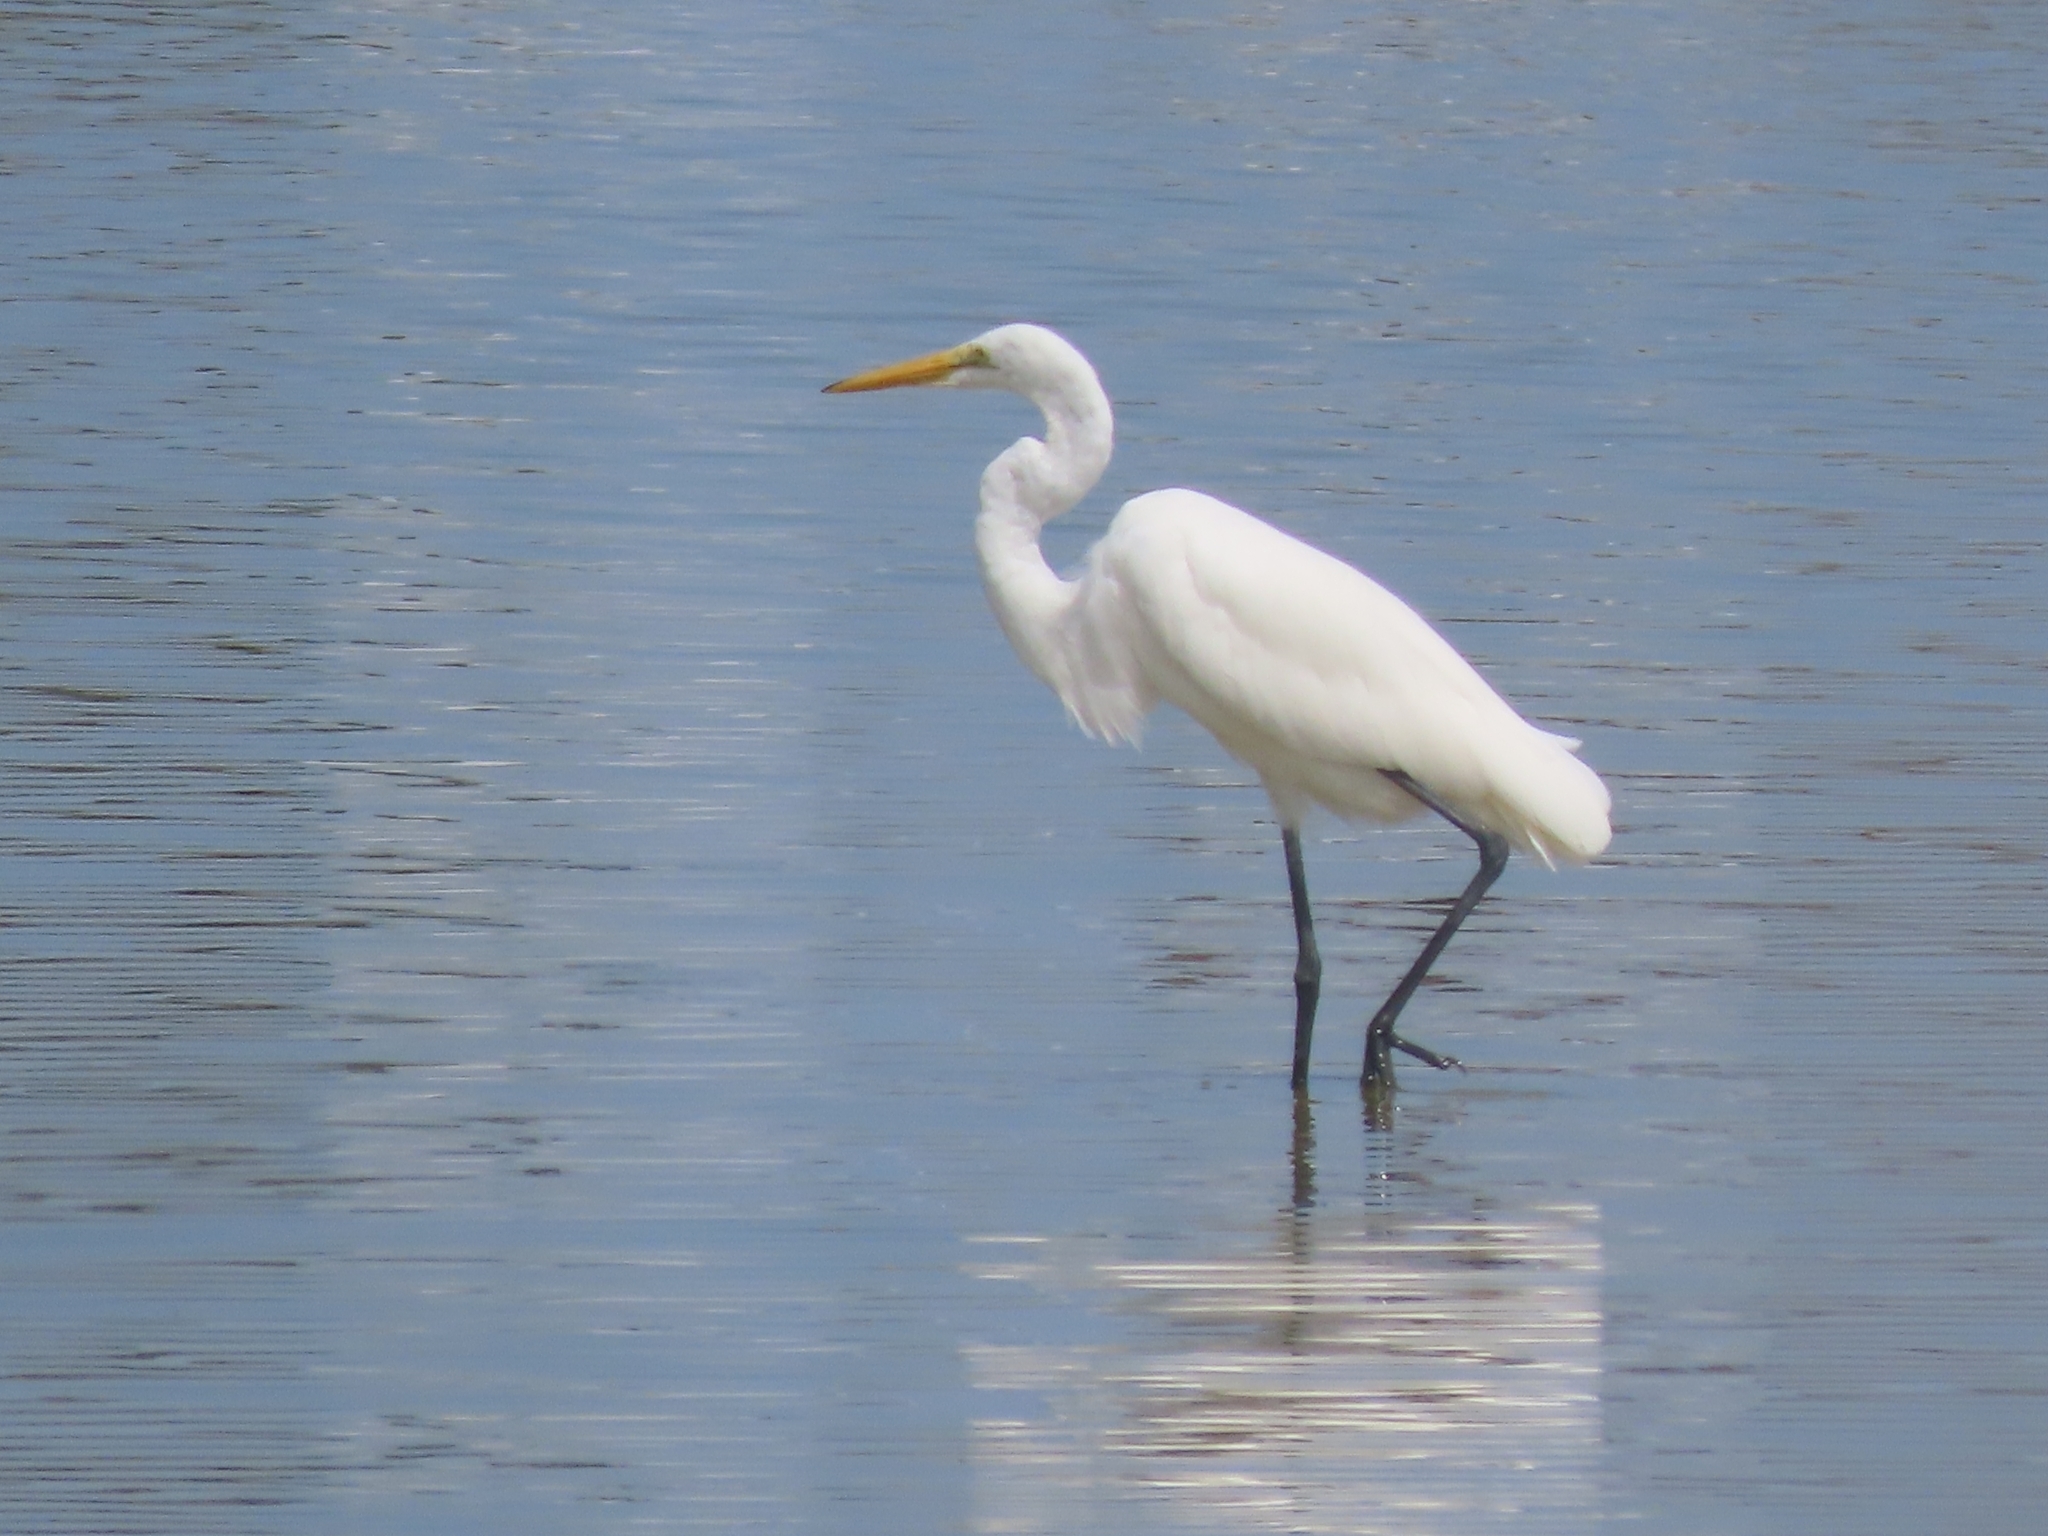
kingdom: Animalia
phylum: Chordata
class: Aves
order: Pelecaniformes
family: Ardeidae
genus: Ardea
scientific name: Ardea alba
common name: Great egret
